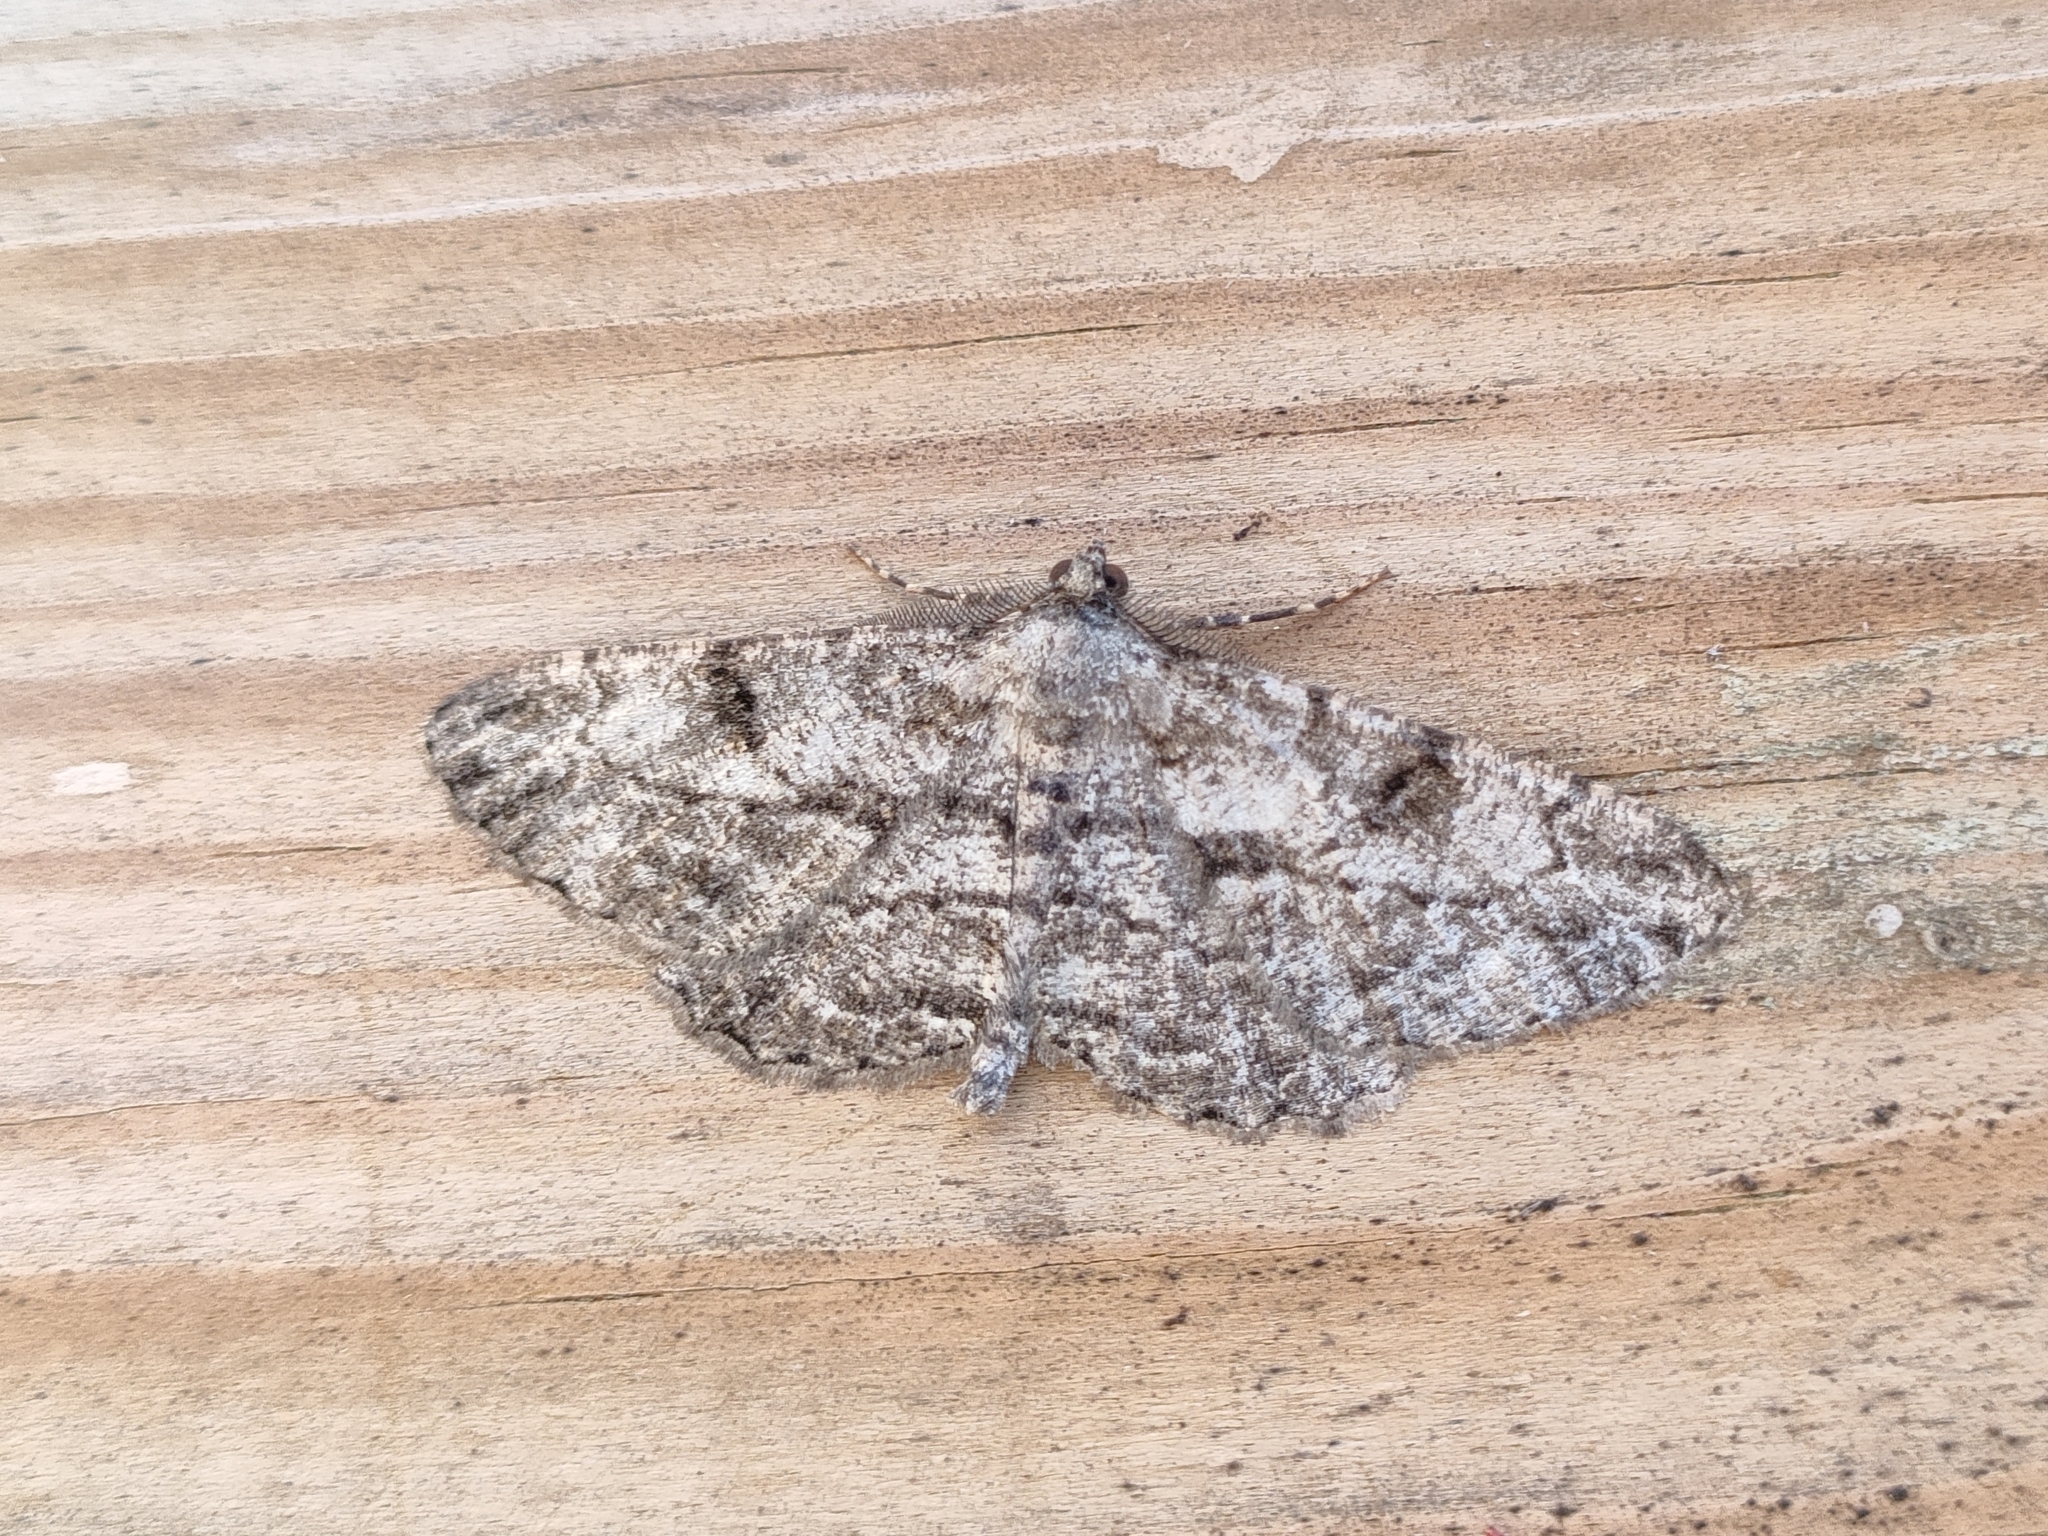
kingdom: Animalia
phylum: Arthropoda
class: Insecta
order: Lepidoptera
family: Geometridae
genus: Peribatodes
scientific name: Peribatodes rhomboidaria
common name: Willow beauty
